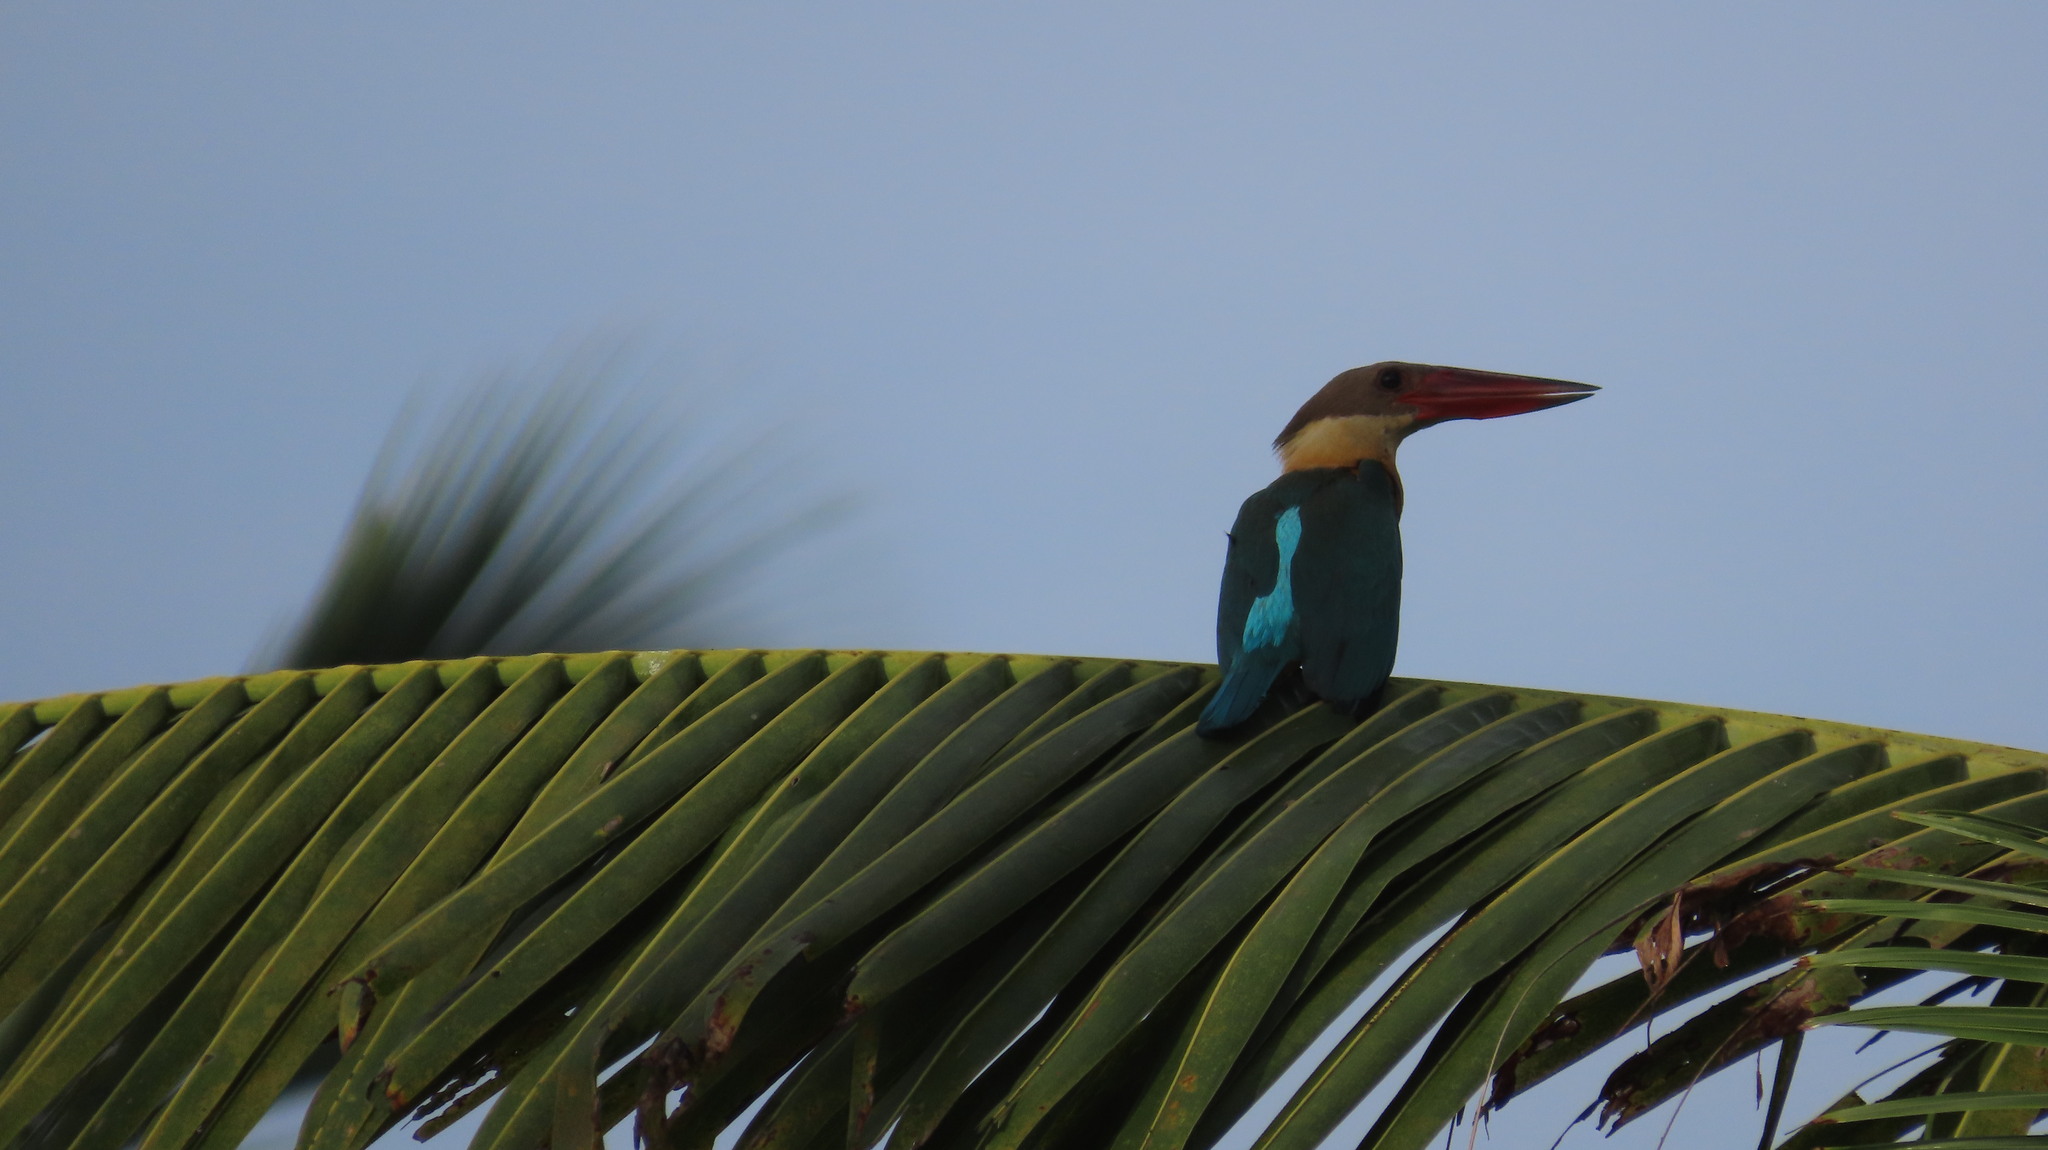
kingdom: Animalia
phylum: Chordata
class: Aves
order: Coraciiformes
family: Alcedinidae
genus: Pelargopsis
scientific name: Pelargopsis capensis
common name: Stork-billed kingfisher
